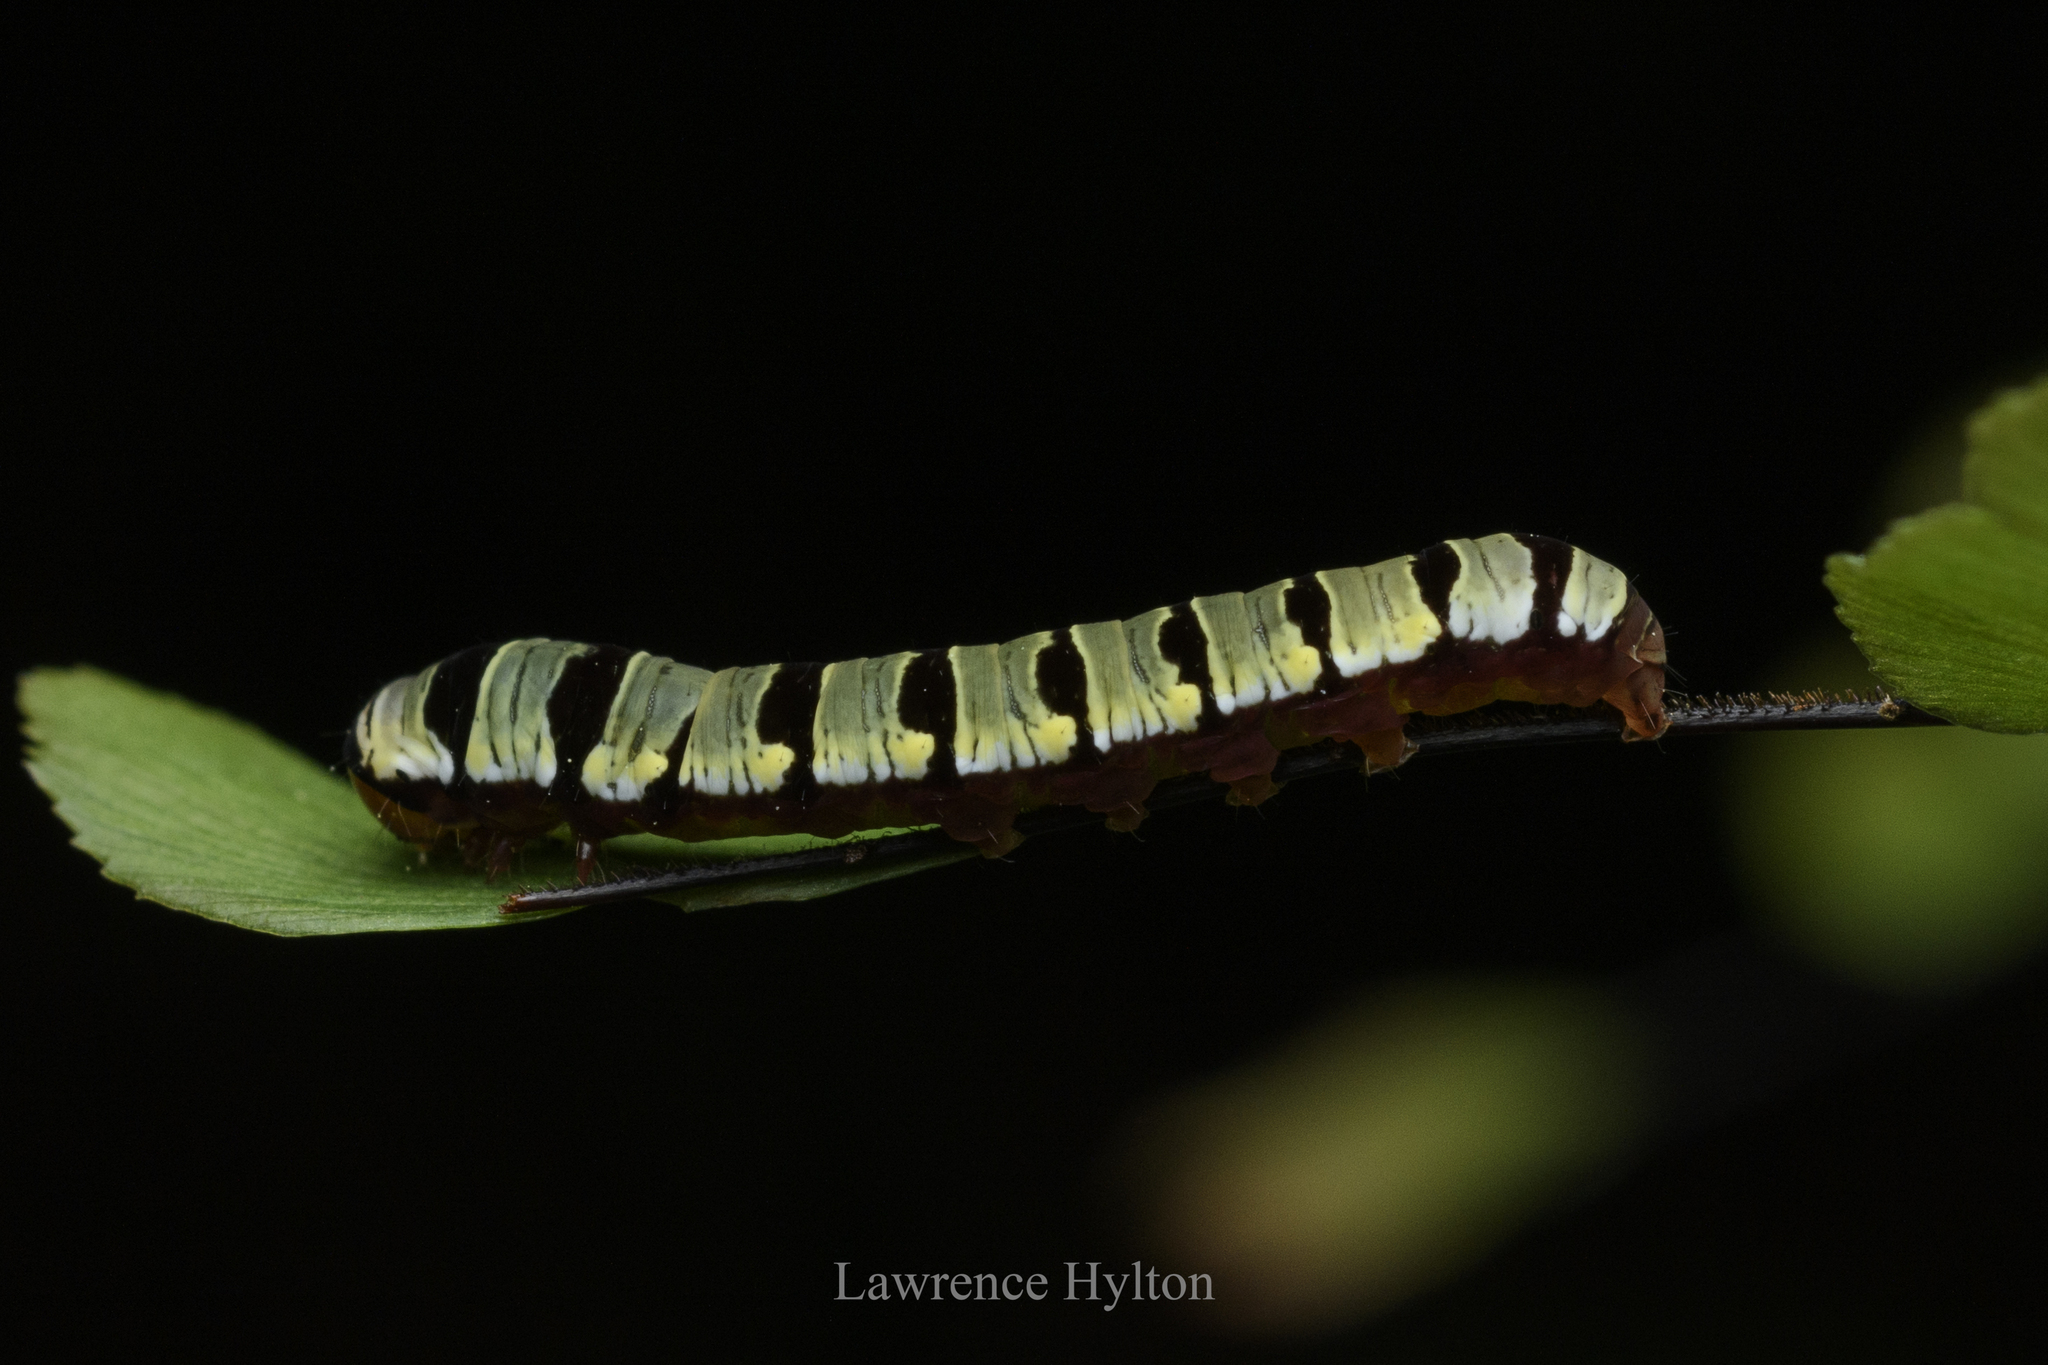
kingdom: Animalia
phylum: Arthropoda
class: Insecta
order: Lepidoptera
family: Noctuidae
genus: Callopistria
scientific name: Callopistria guttulalis
